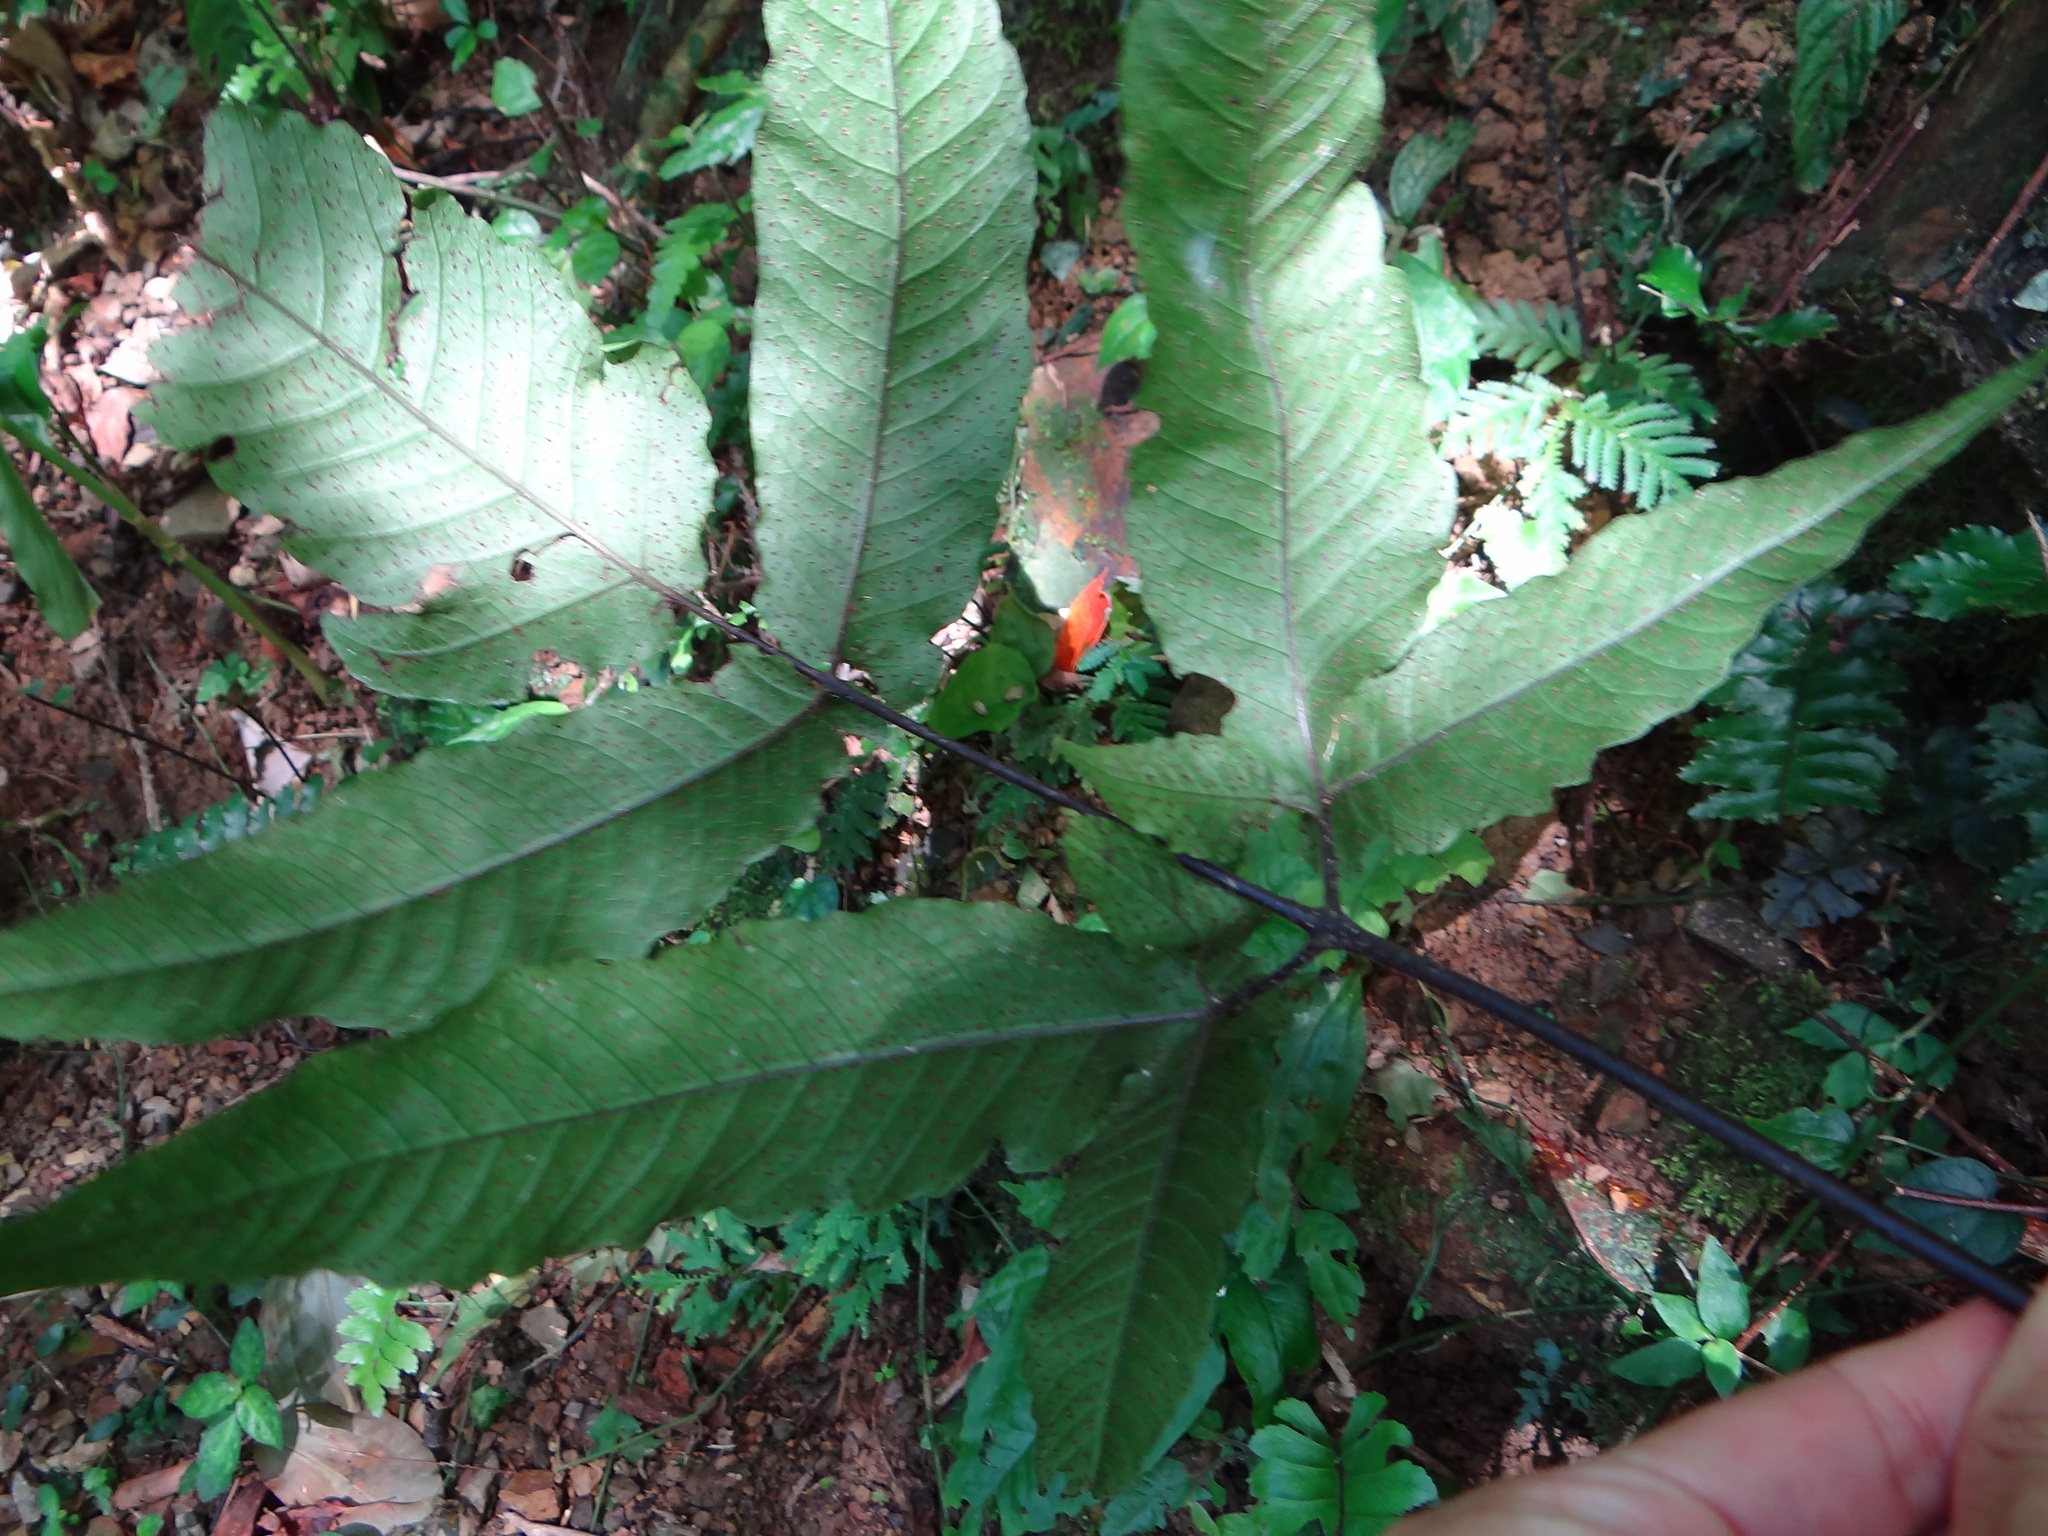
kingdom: Plantae
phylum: Tracheophyta
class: Polypodiopsida
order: Polypodiales
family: Tectariaceae
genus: Tectaria
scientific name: Tectaria simonsii
